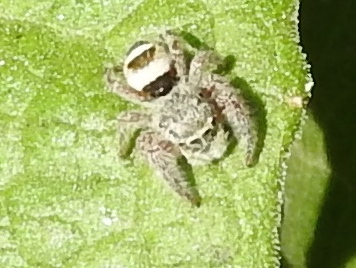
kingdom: Animalia
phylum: Arthropoda
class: Arachnida
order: Araneae
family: Salticidae
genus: Phidippus
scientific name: Phidippus pacosauritus
